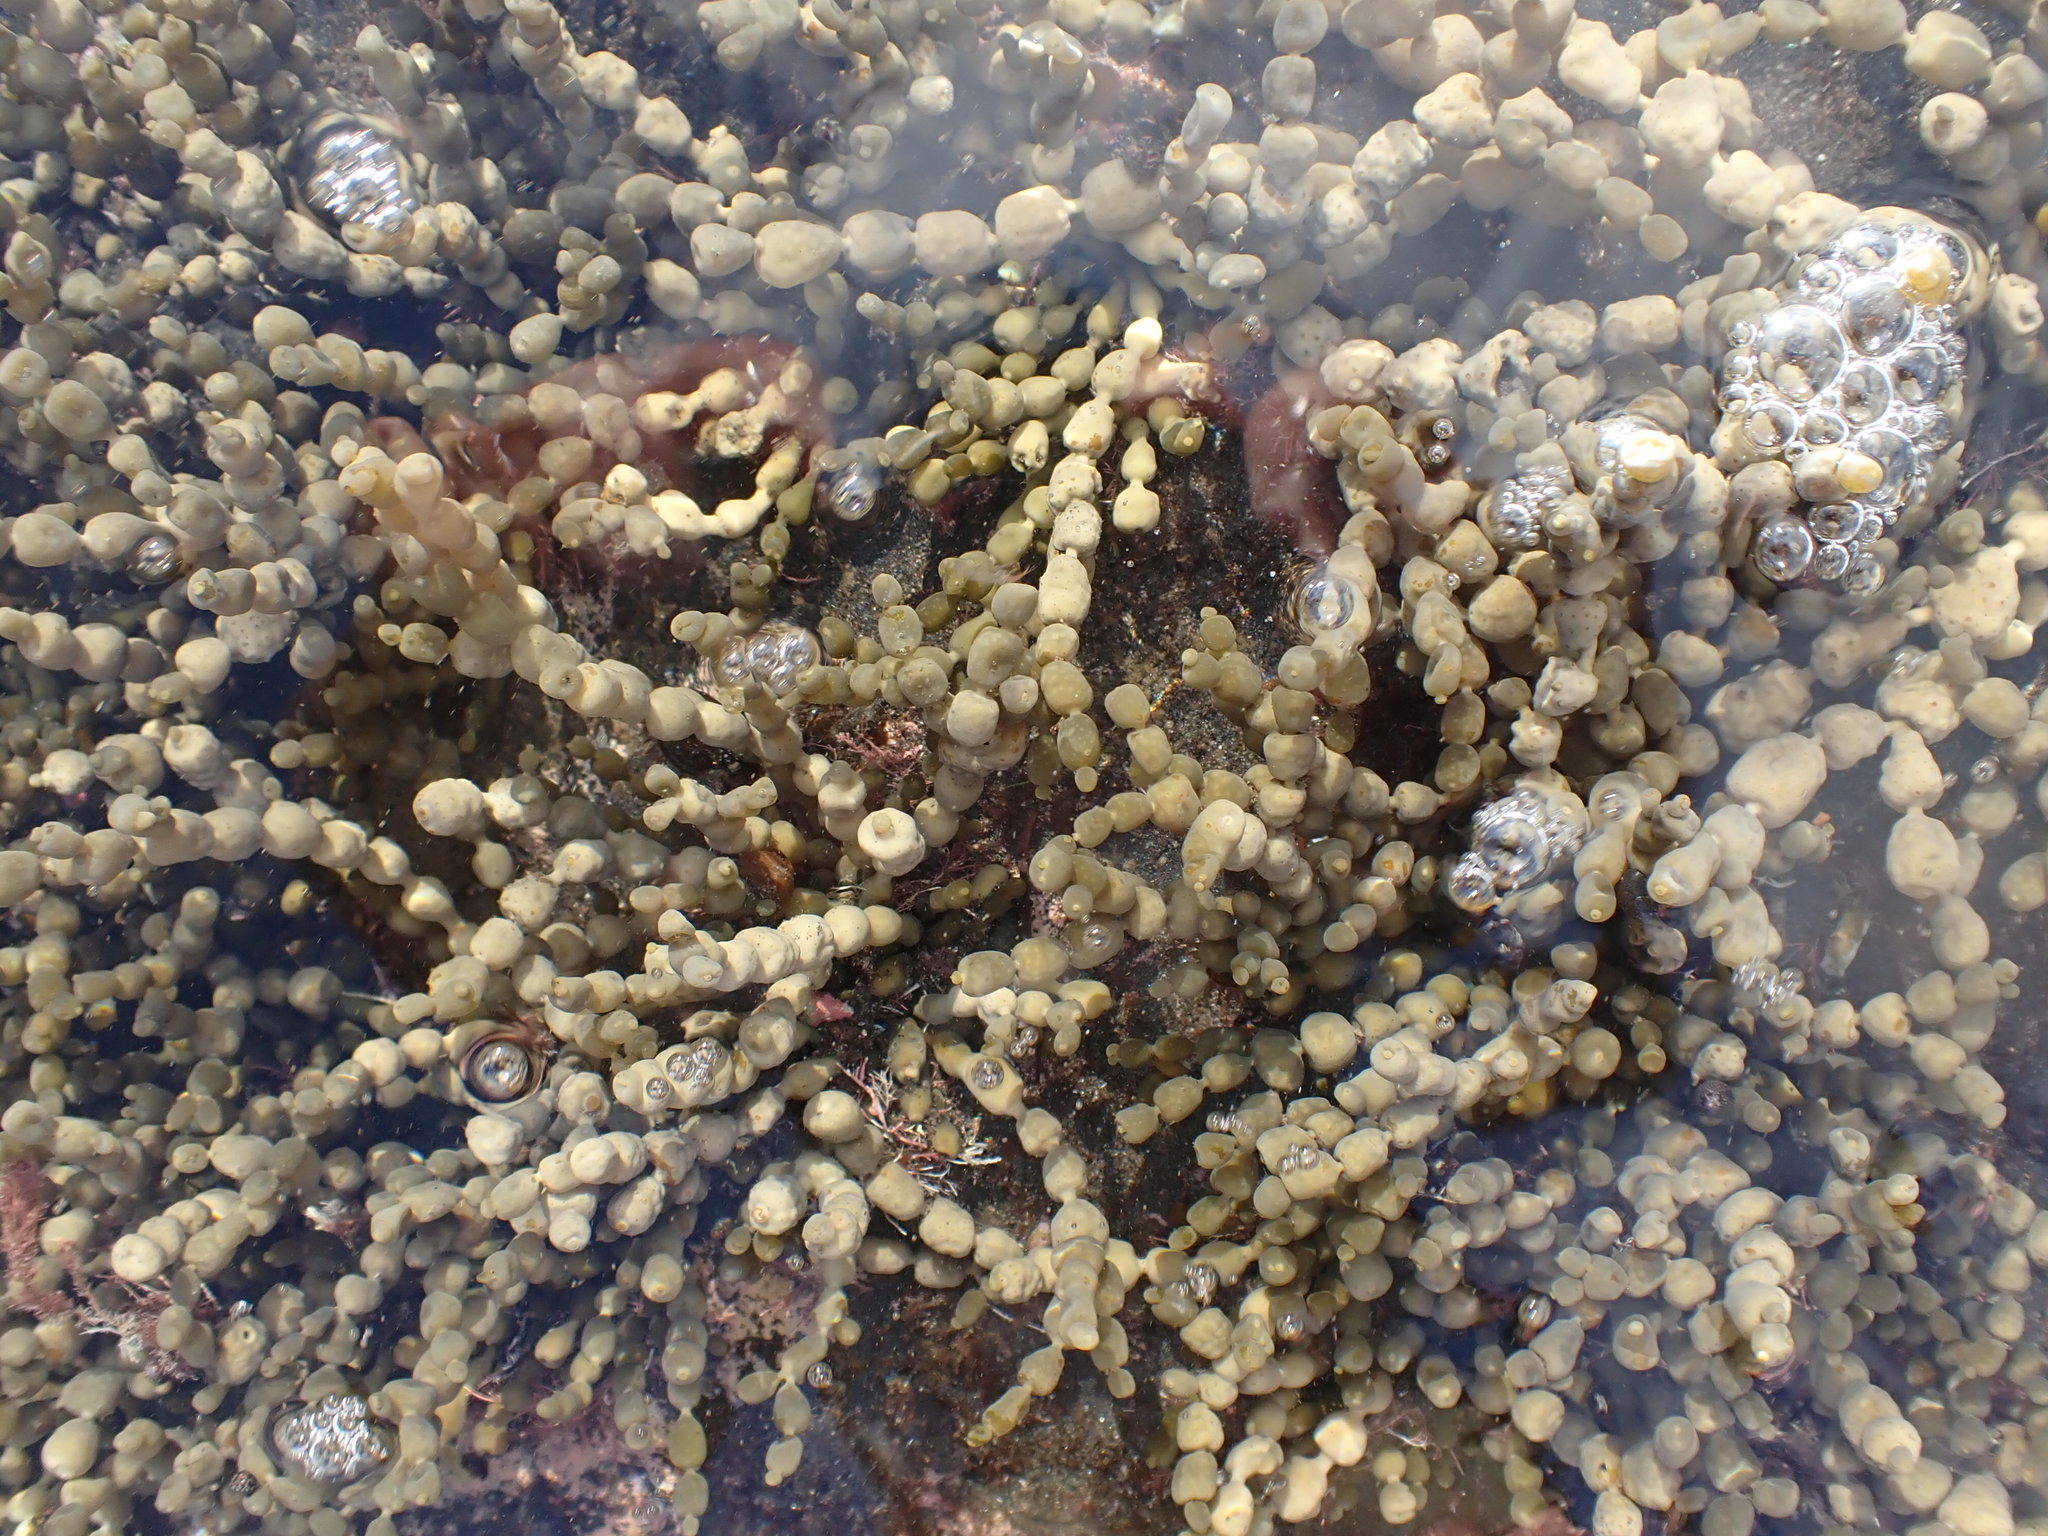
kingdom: Chromista
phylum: Ochrophyta
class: Phaeophyceae
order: Fucales
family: Hormosiraceae
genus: Hormosira
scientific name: Hormosira banksii
